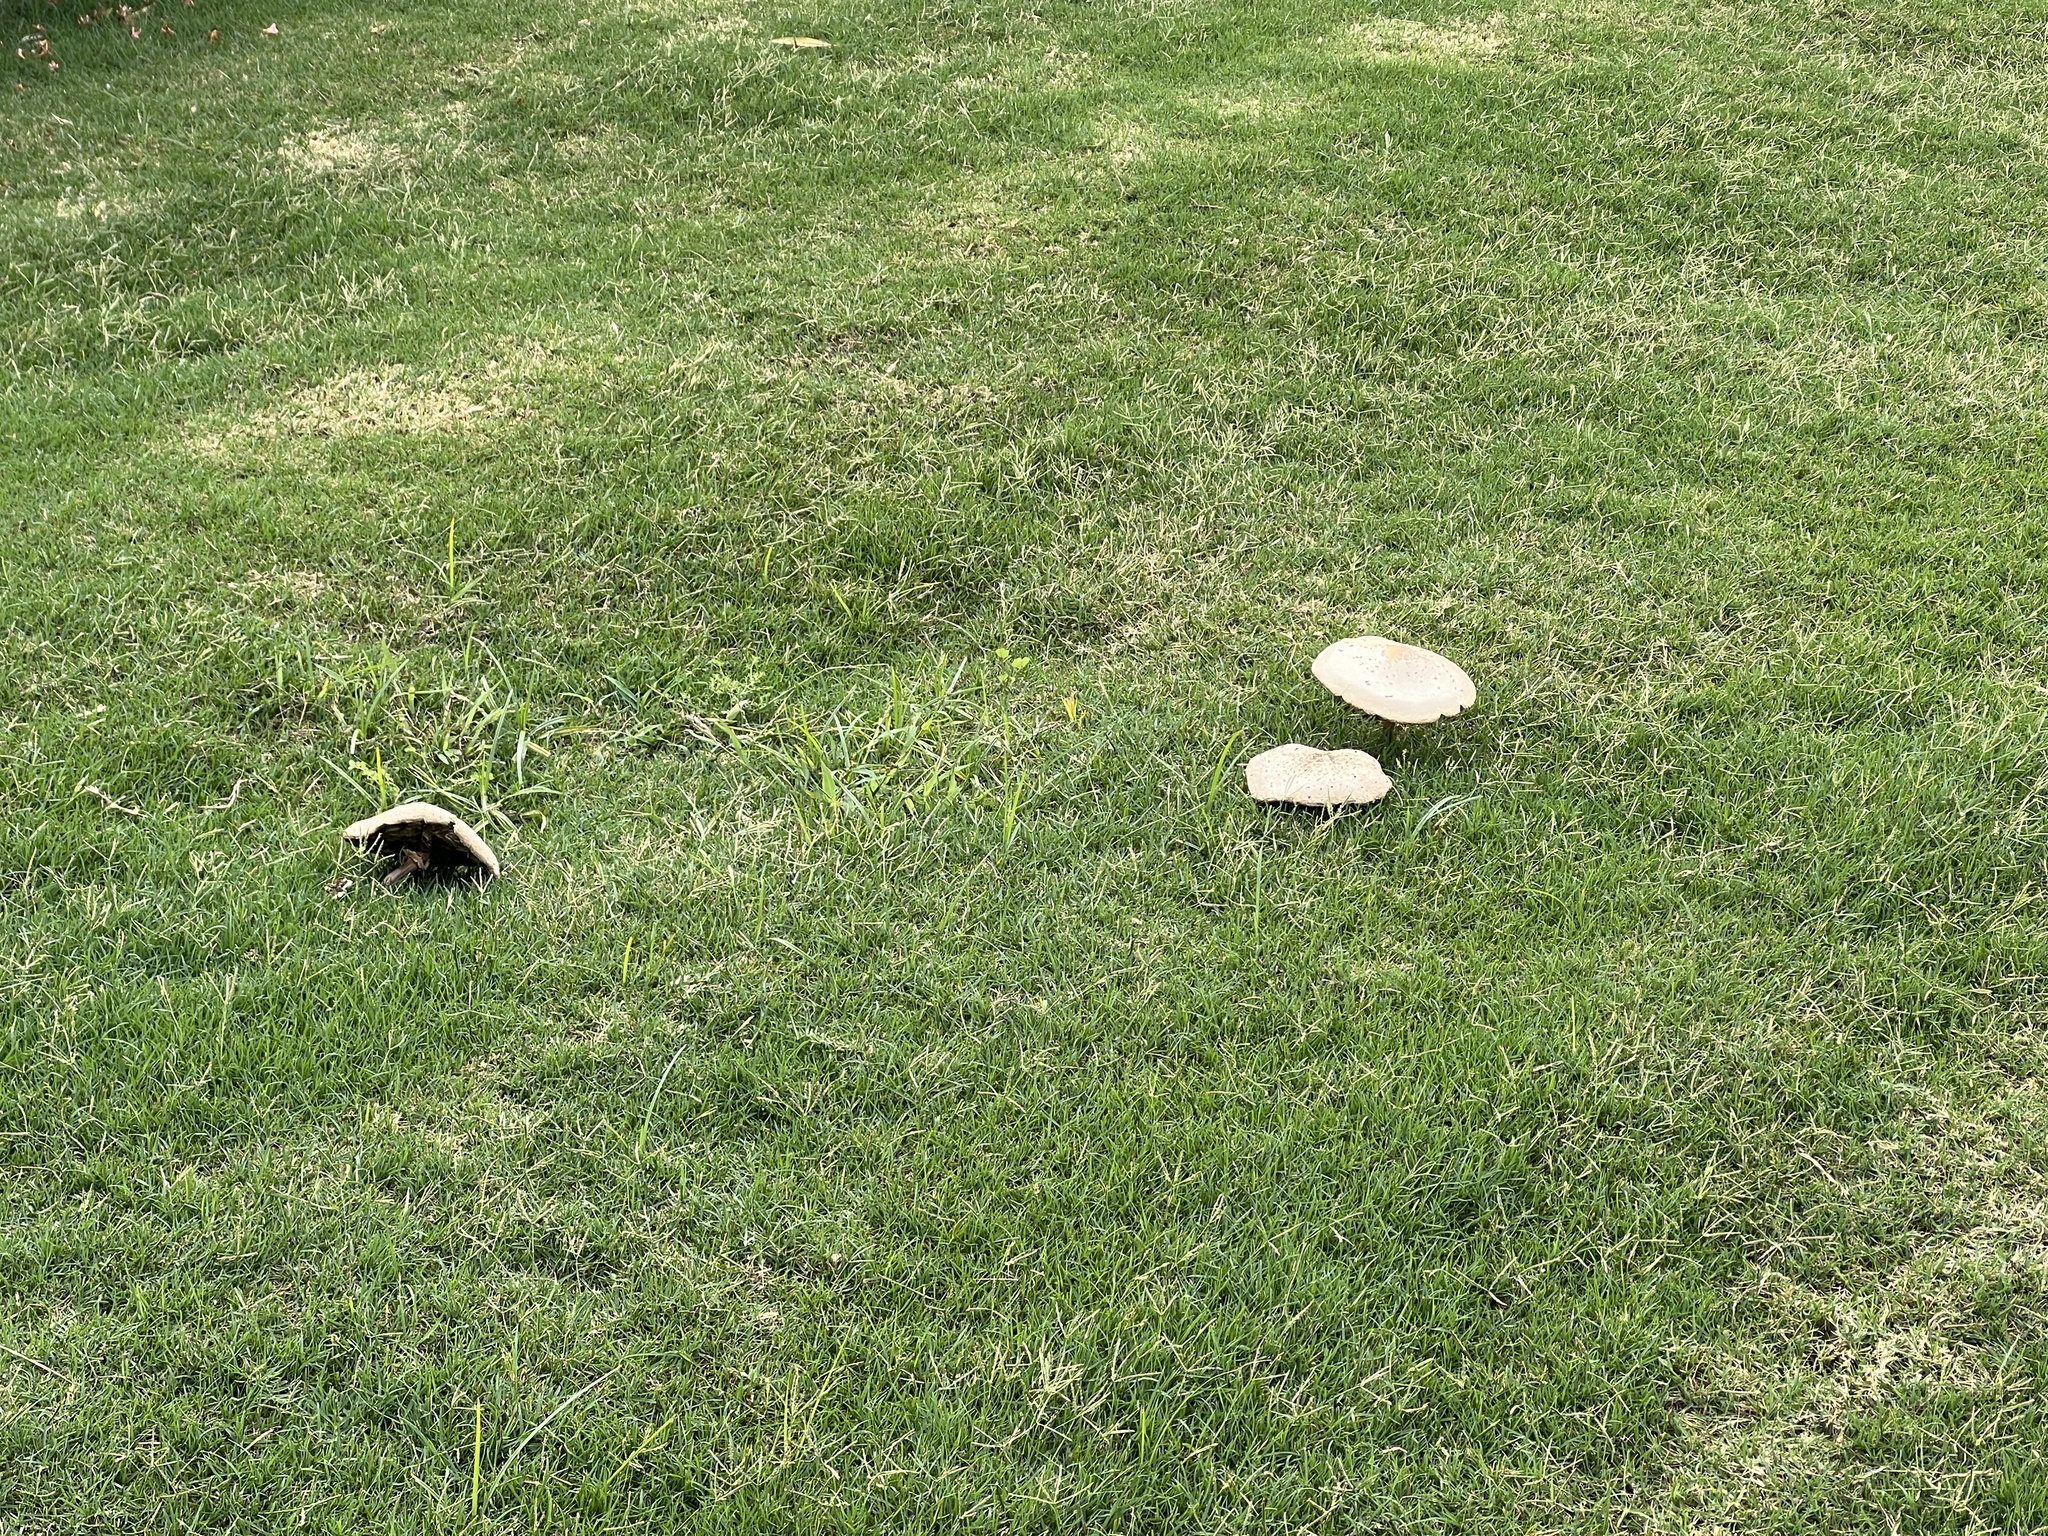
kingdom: Fungi
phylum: Basidiomycota
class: Agaricomycetes
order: Agaricales
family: Agaricaceae
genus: Chlorophyllum
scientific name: Chlorophyllum molybdites
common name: False parasol
